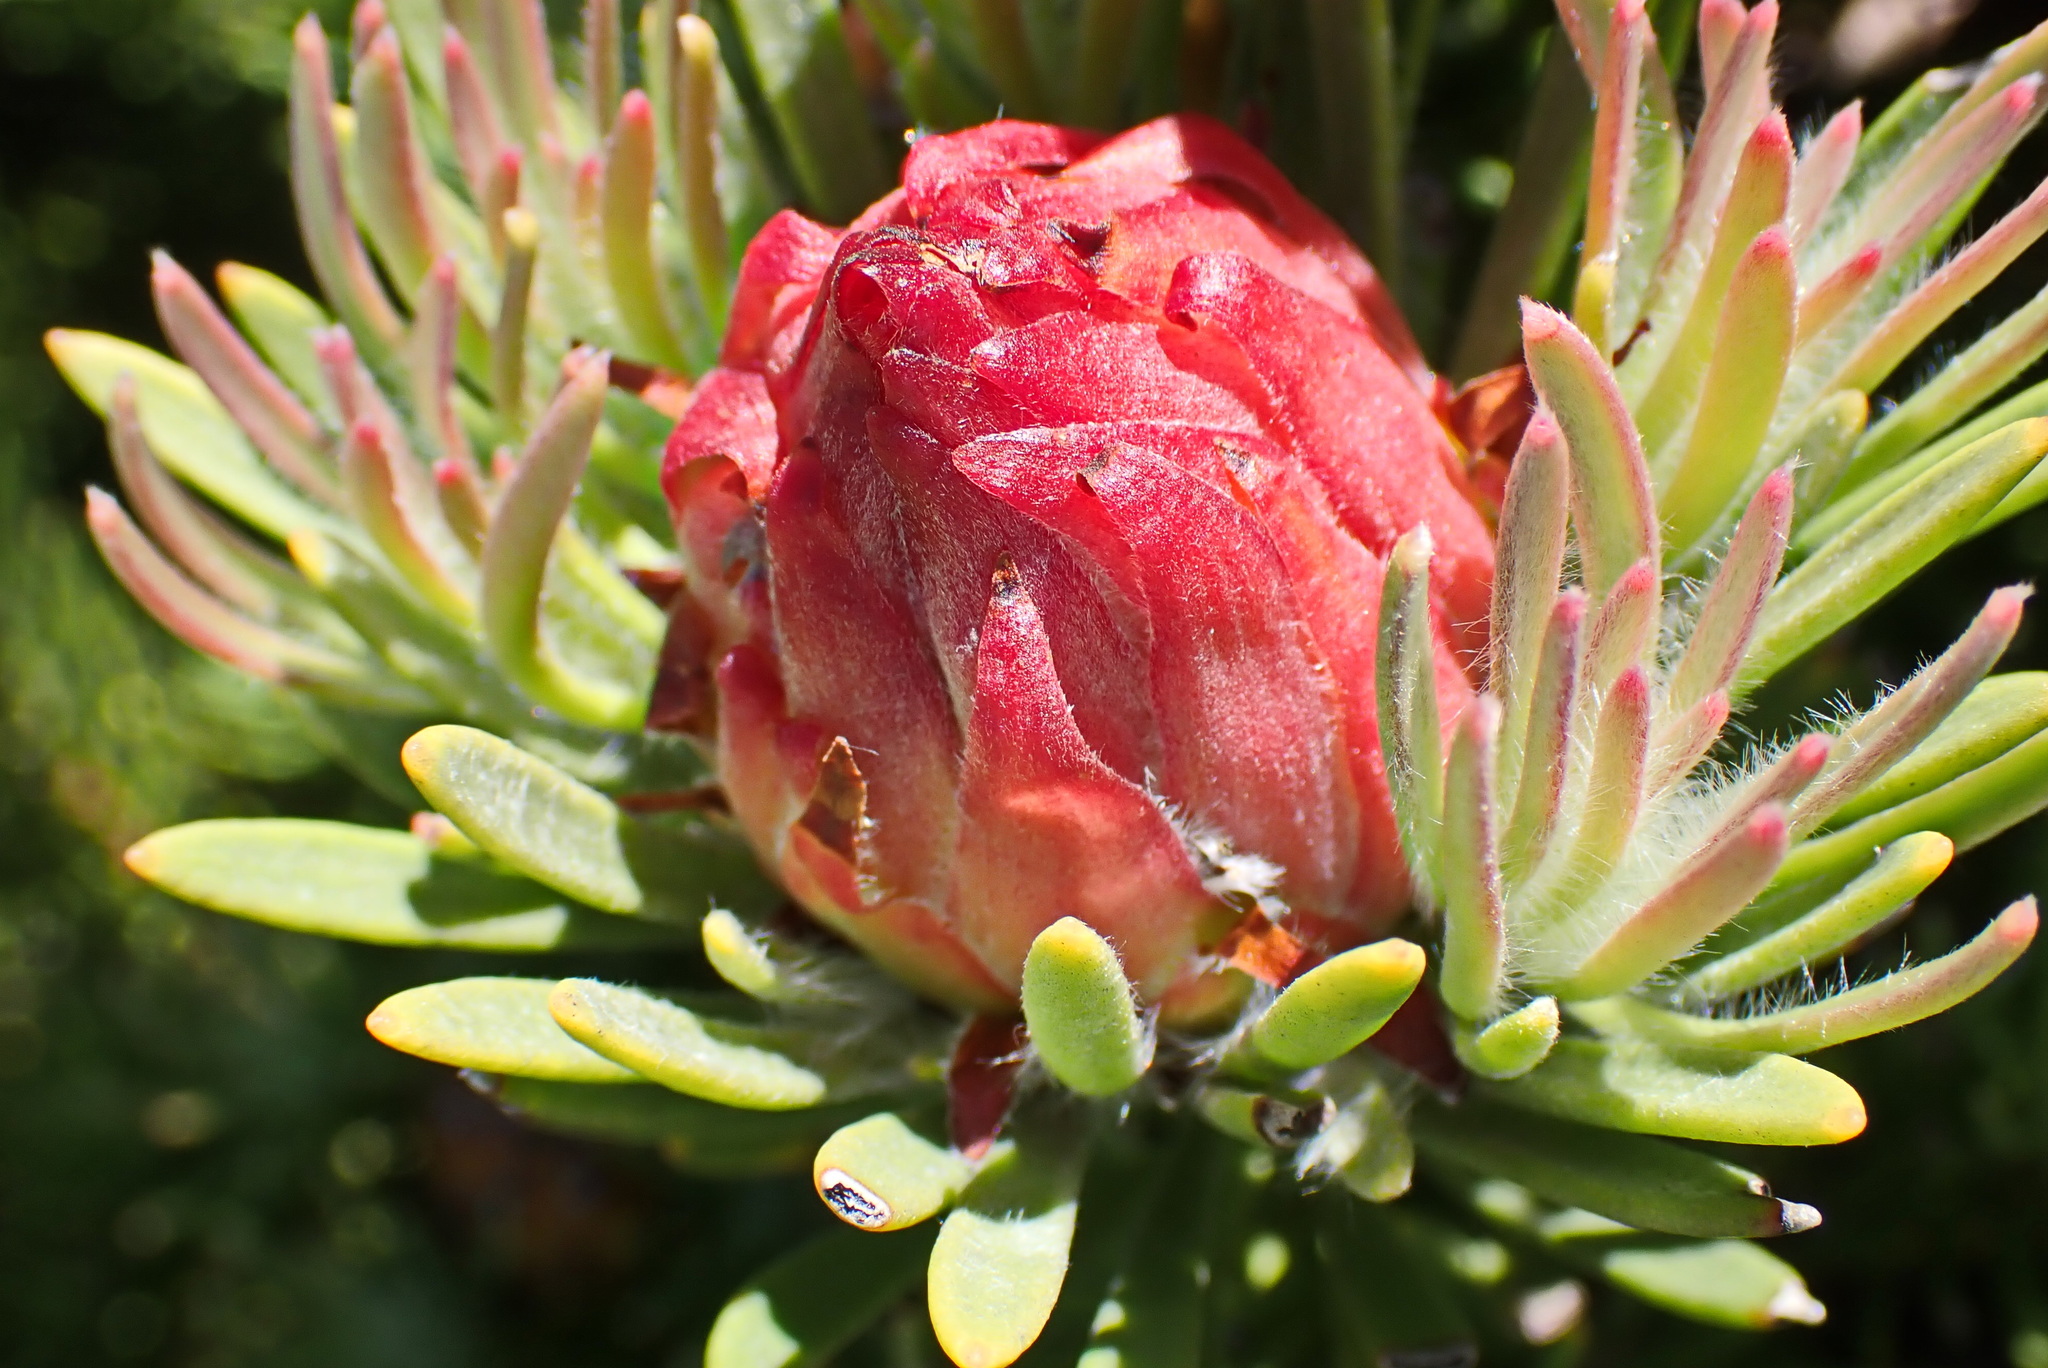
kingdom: Plantae
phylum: Tracheophyta
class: Magnoliopsida
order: Proteales
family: Proteaceae
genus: Leucadendron
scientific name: Leucadendron dregei
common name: Summit conebush
